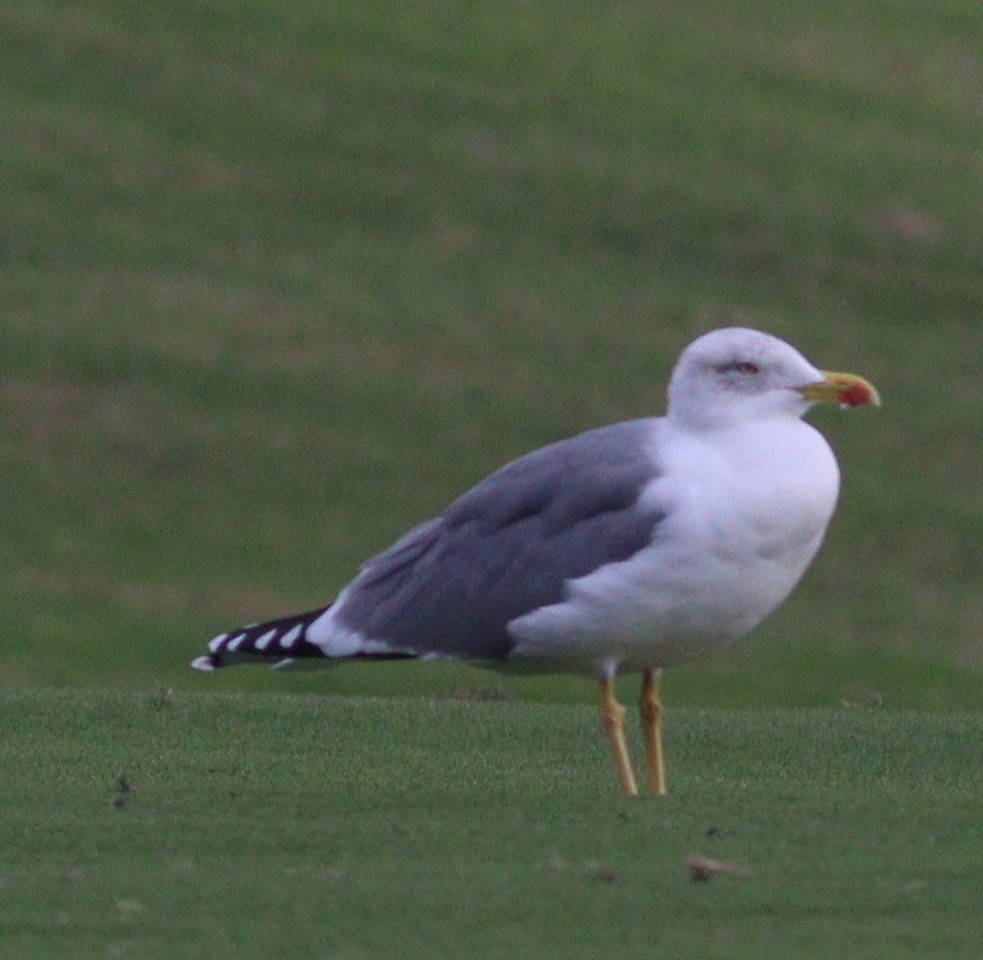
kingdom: Animalia
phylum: Chordata
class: Aves
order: Charadriiformes
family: Laridae
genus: Larus
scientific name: Larus michahellis
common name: Yellow-legged gull
